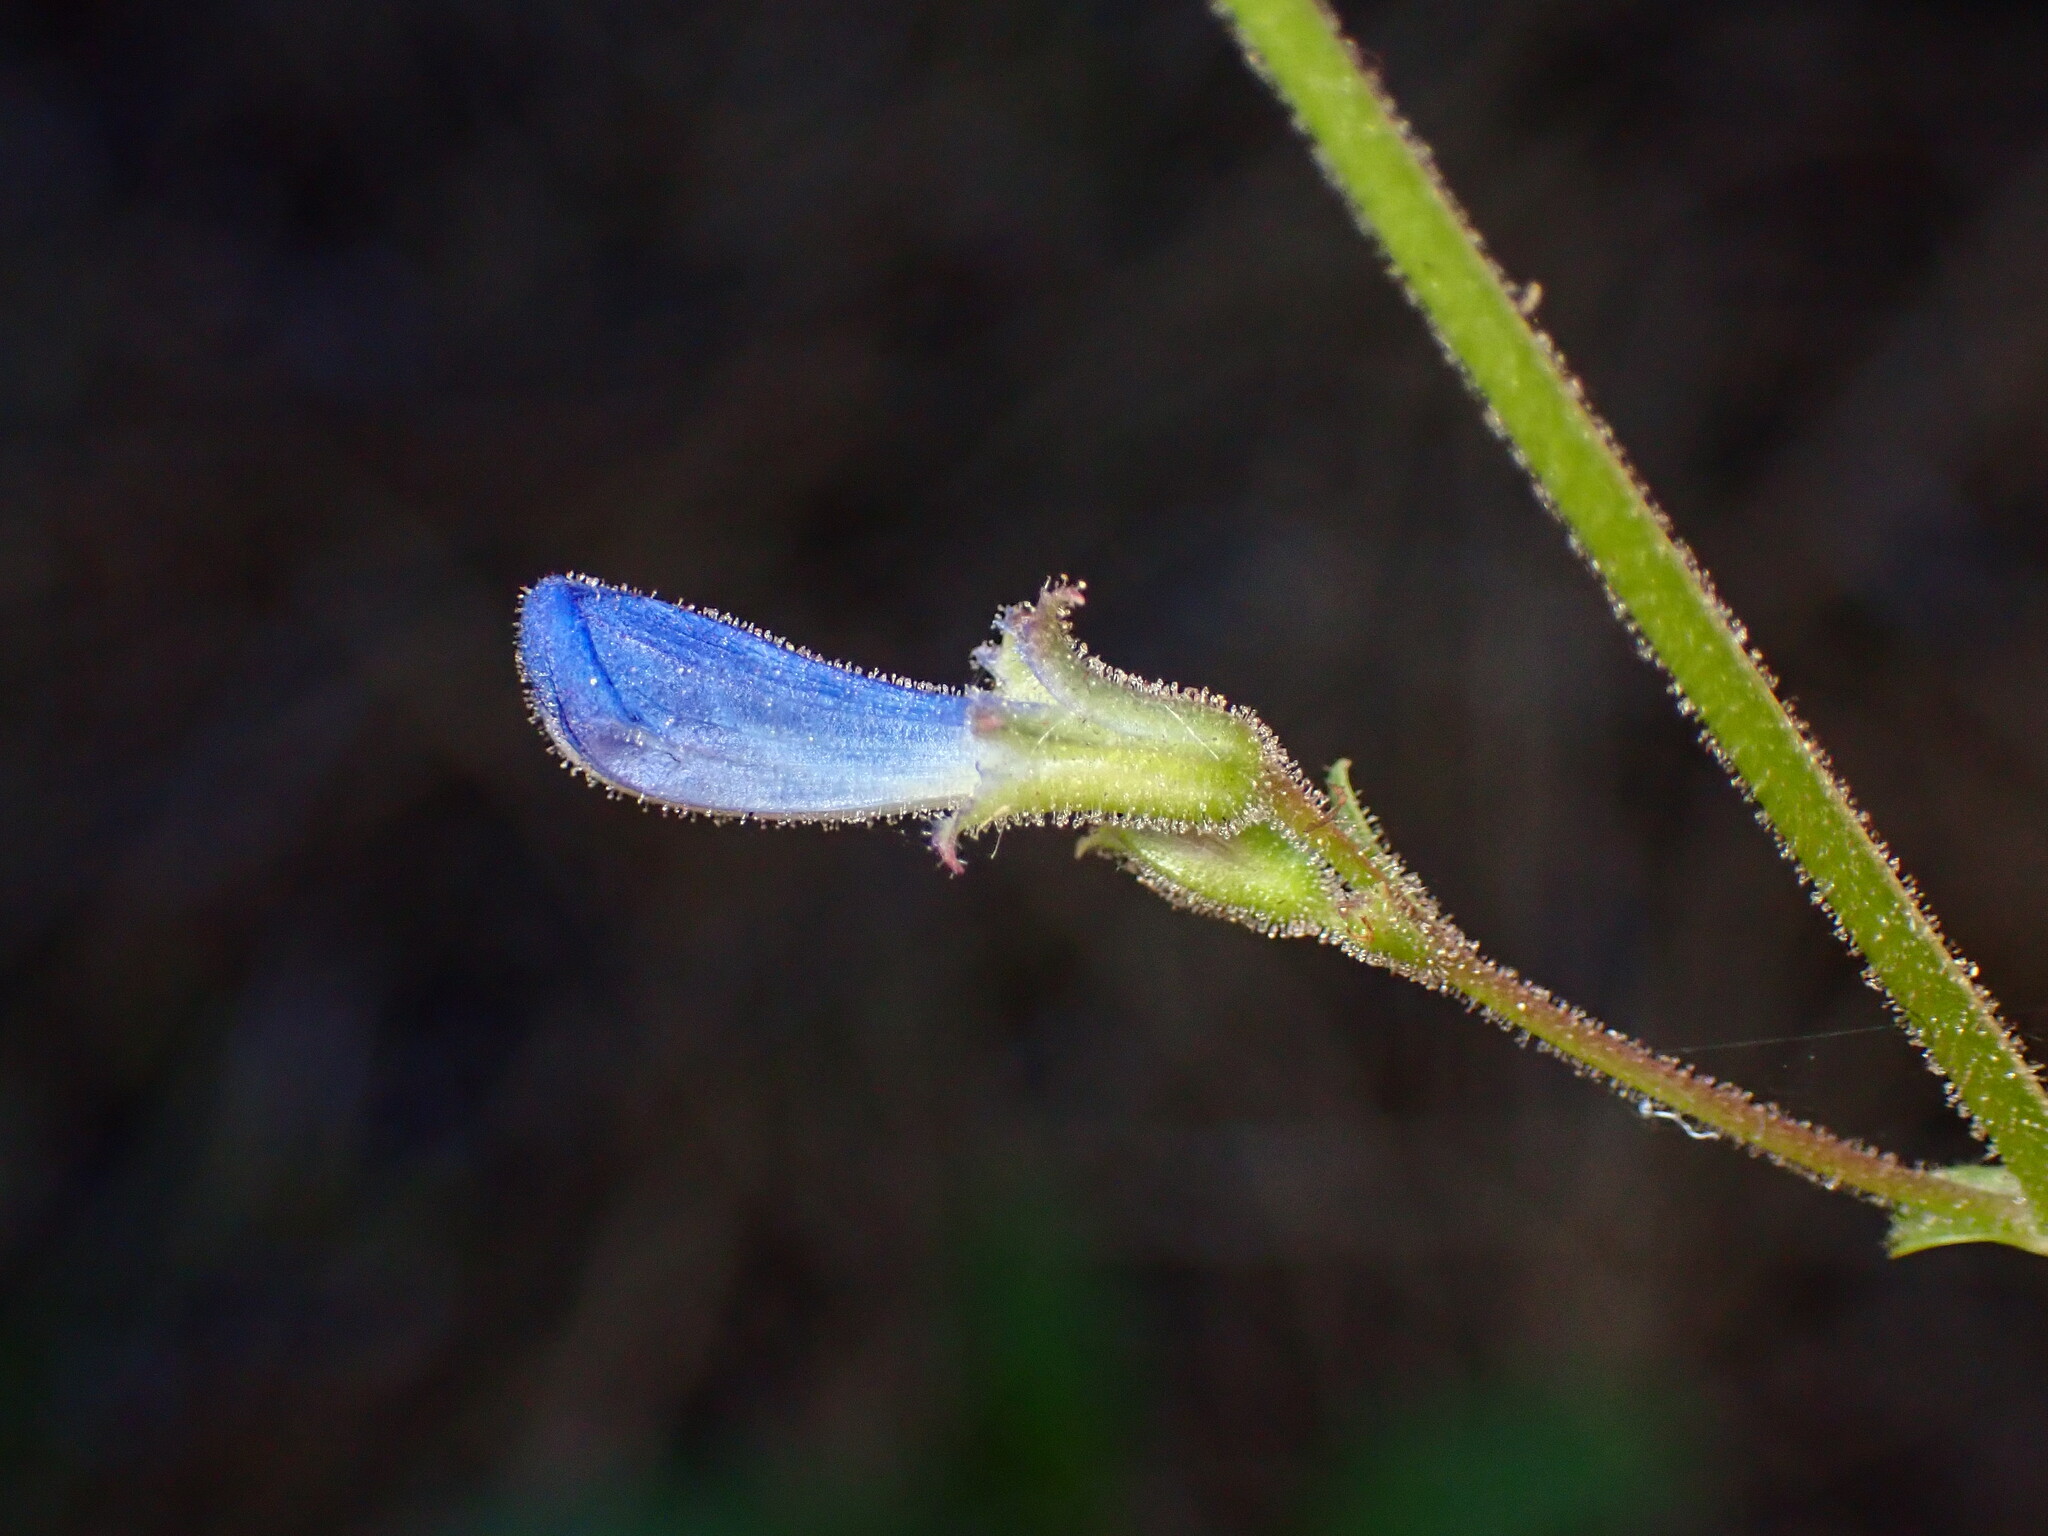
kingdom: Plantae
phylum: Tracheophyta
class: Magnoliopsida
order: Lamiales
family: Plantaginaceae
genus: Penstemon
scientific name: Penstemon laetus
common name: Gay penstemon
